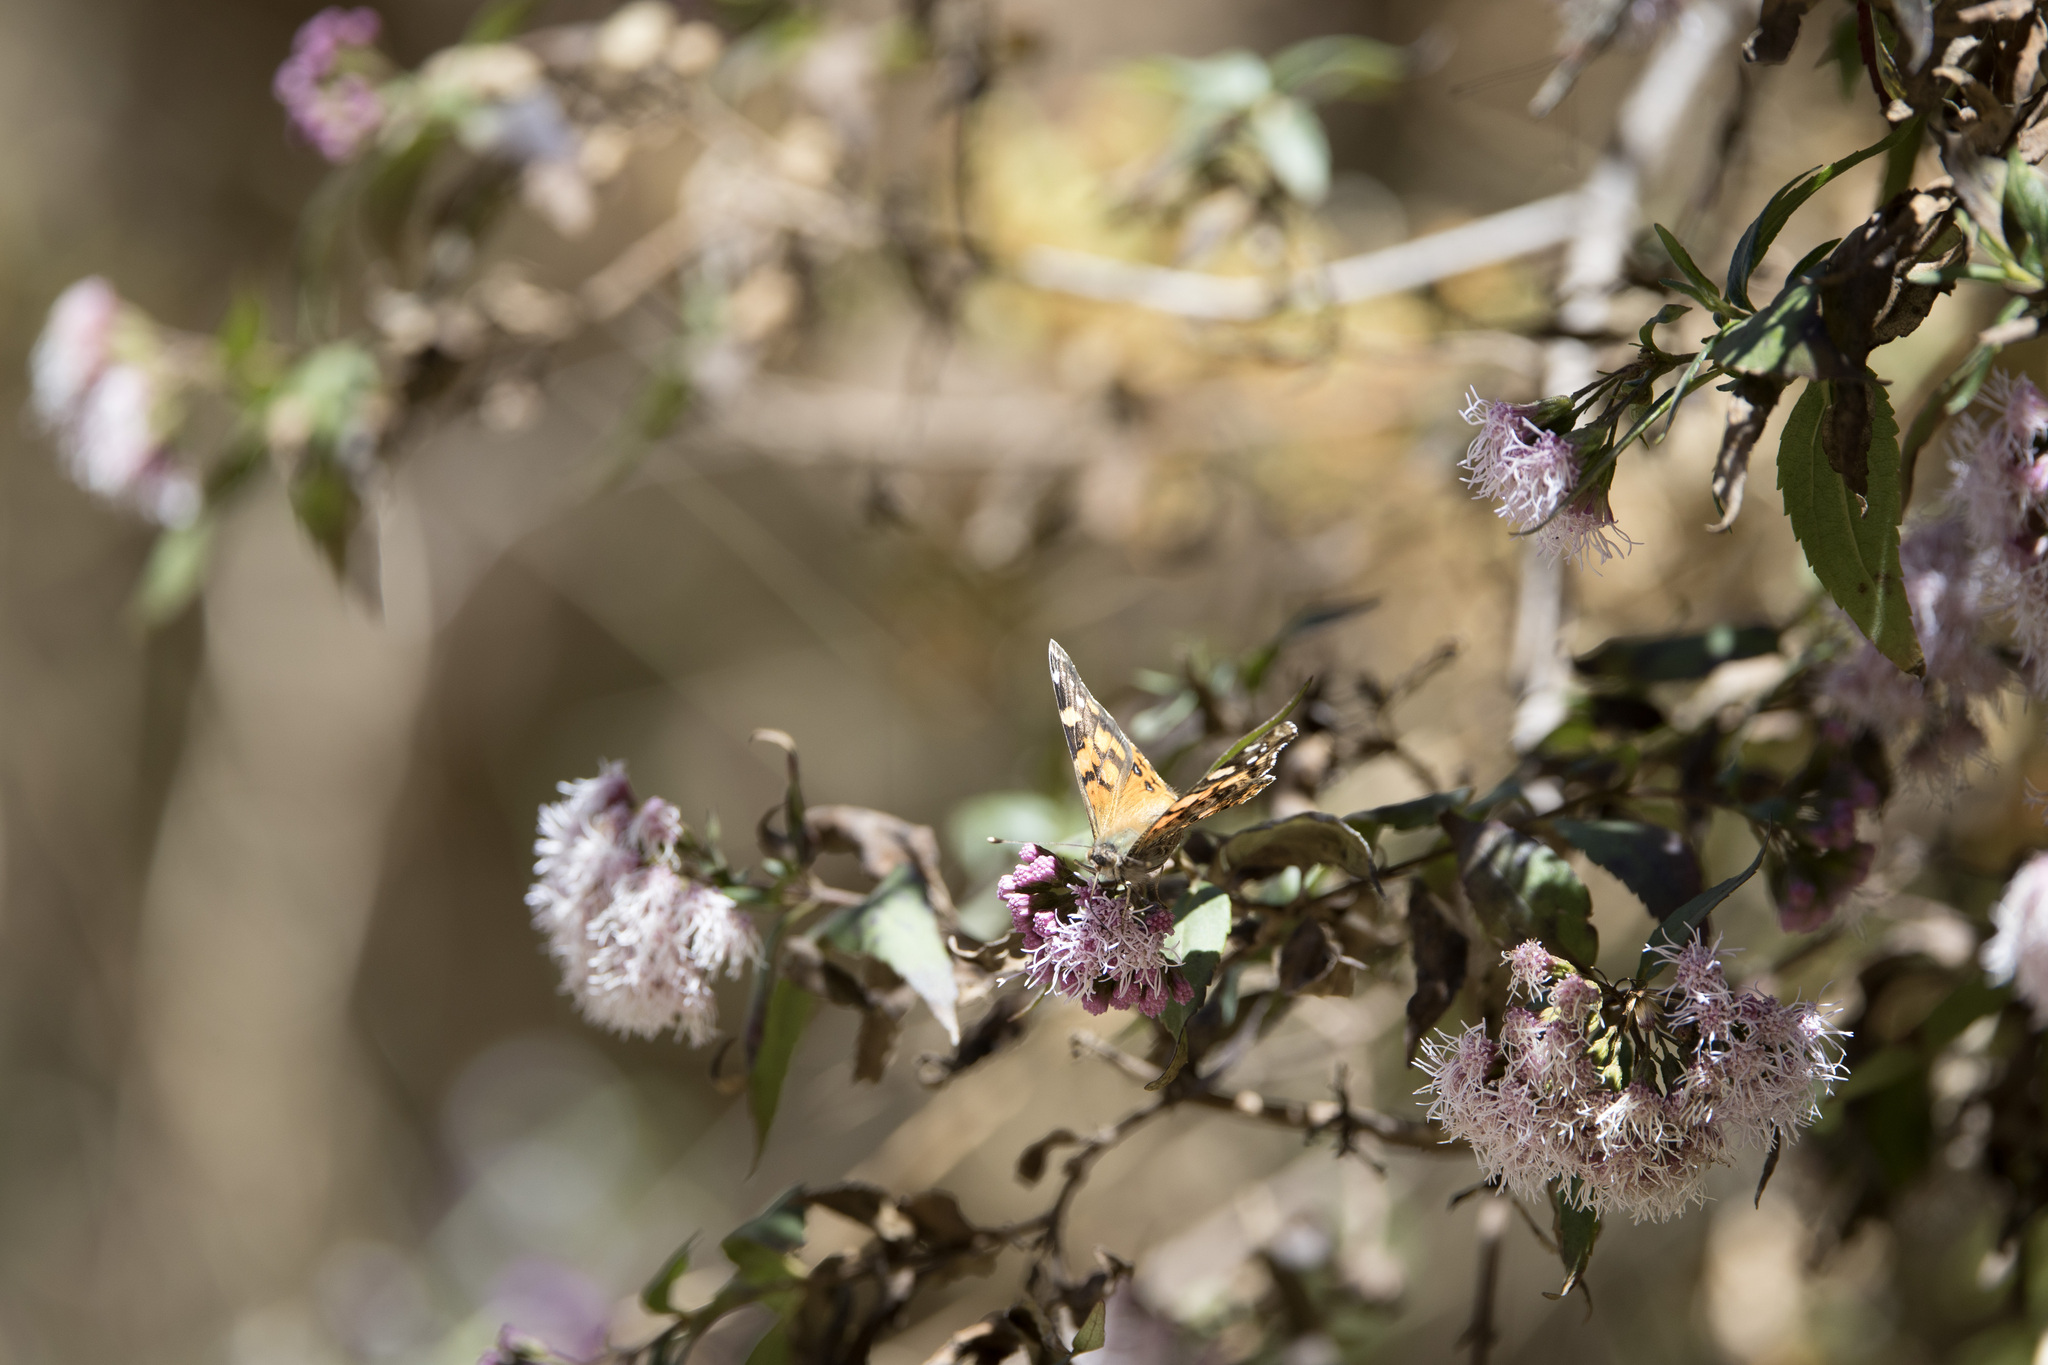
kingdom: Animalia
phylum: Arthropoda
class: Insecta
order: Lepidoptera
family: Nymphalidae
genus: Vanessa
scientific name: Vanessa carye
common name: Subtropical lady
